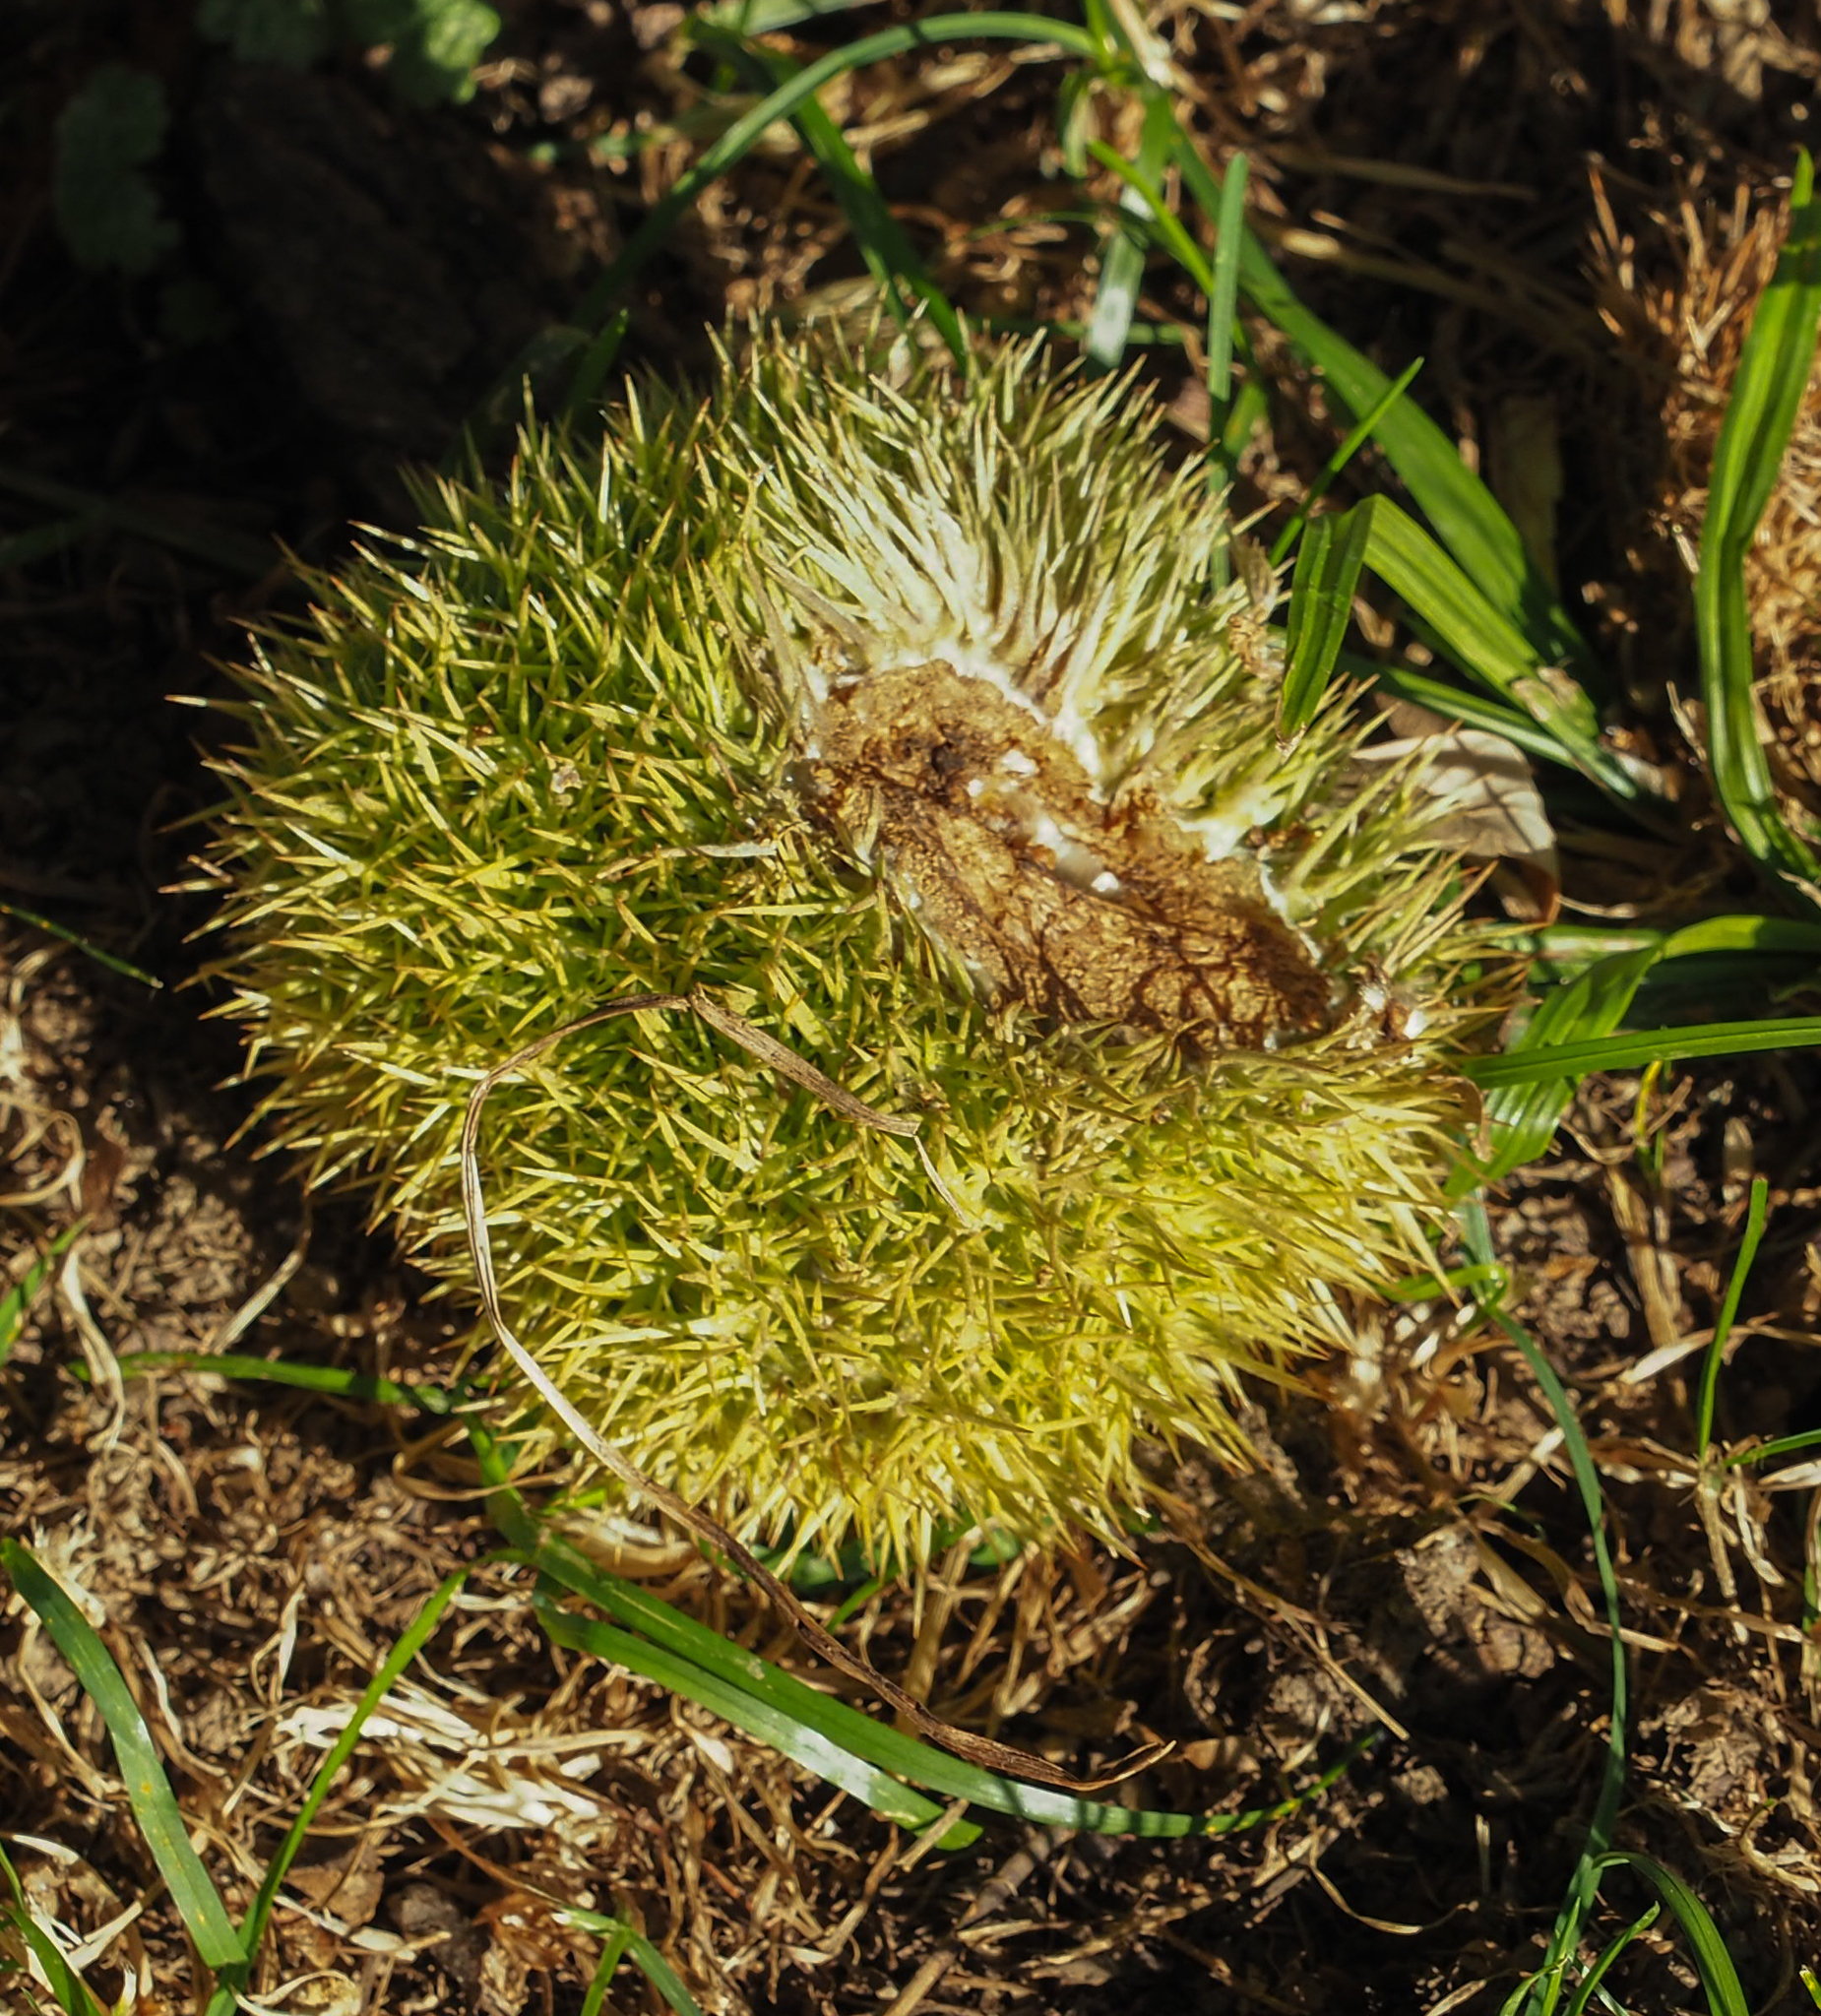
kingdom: Plantae
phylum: Tracheophyta
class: Magnoliopsida
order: Fagales
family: Fagaceae
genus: Castanea
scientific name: Castanea mollissima
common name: Chinese chestnut
